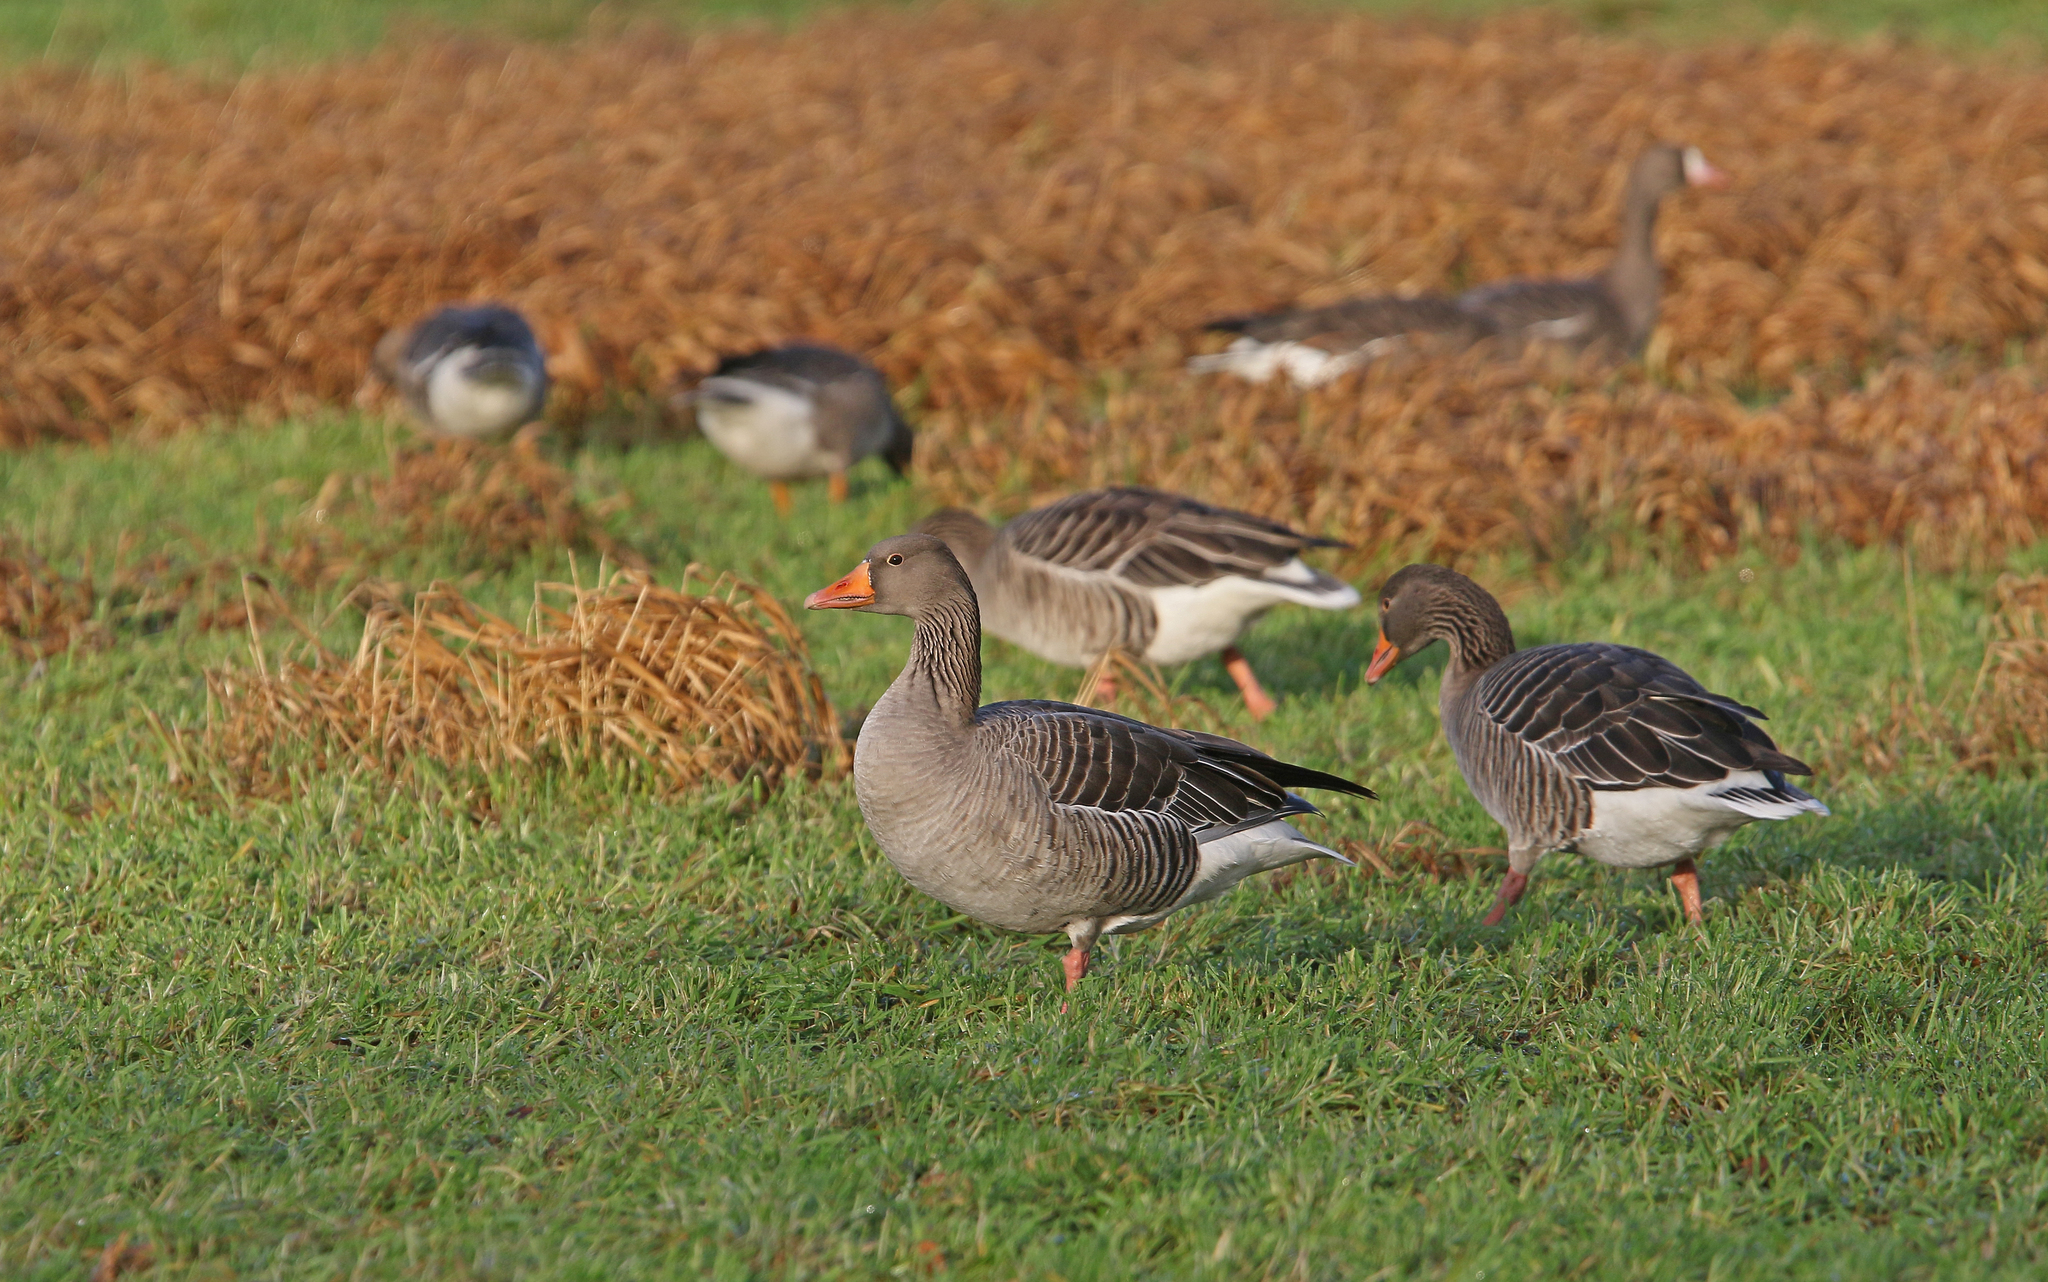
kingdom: Animalia
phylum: Chordata
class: Aves
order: Anseriformes
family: Anatidae
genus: Anser
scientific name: Anser anser
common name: Greylag goose
